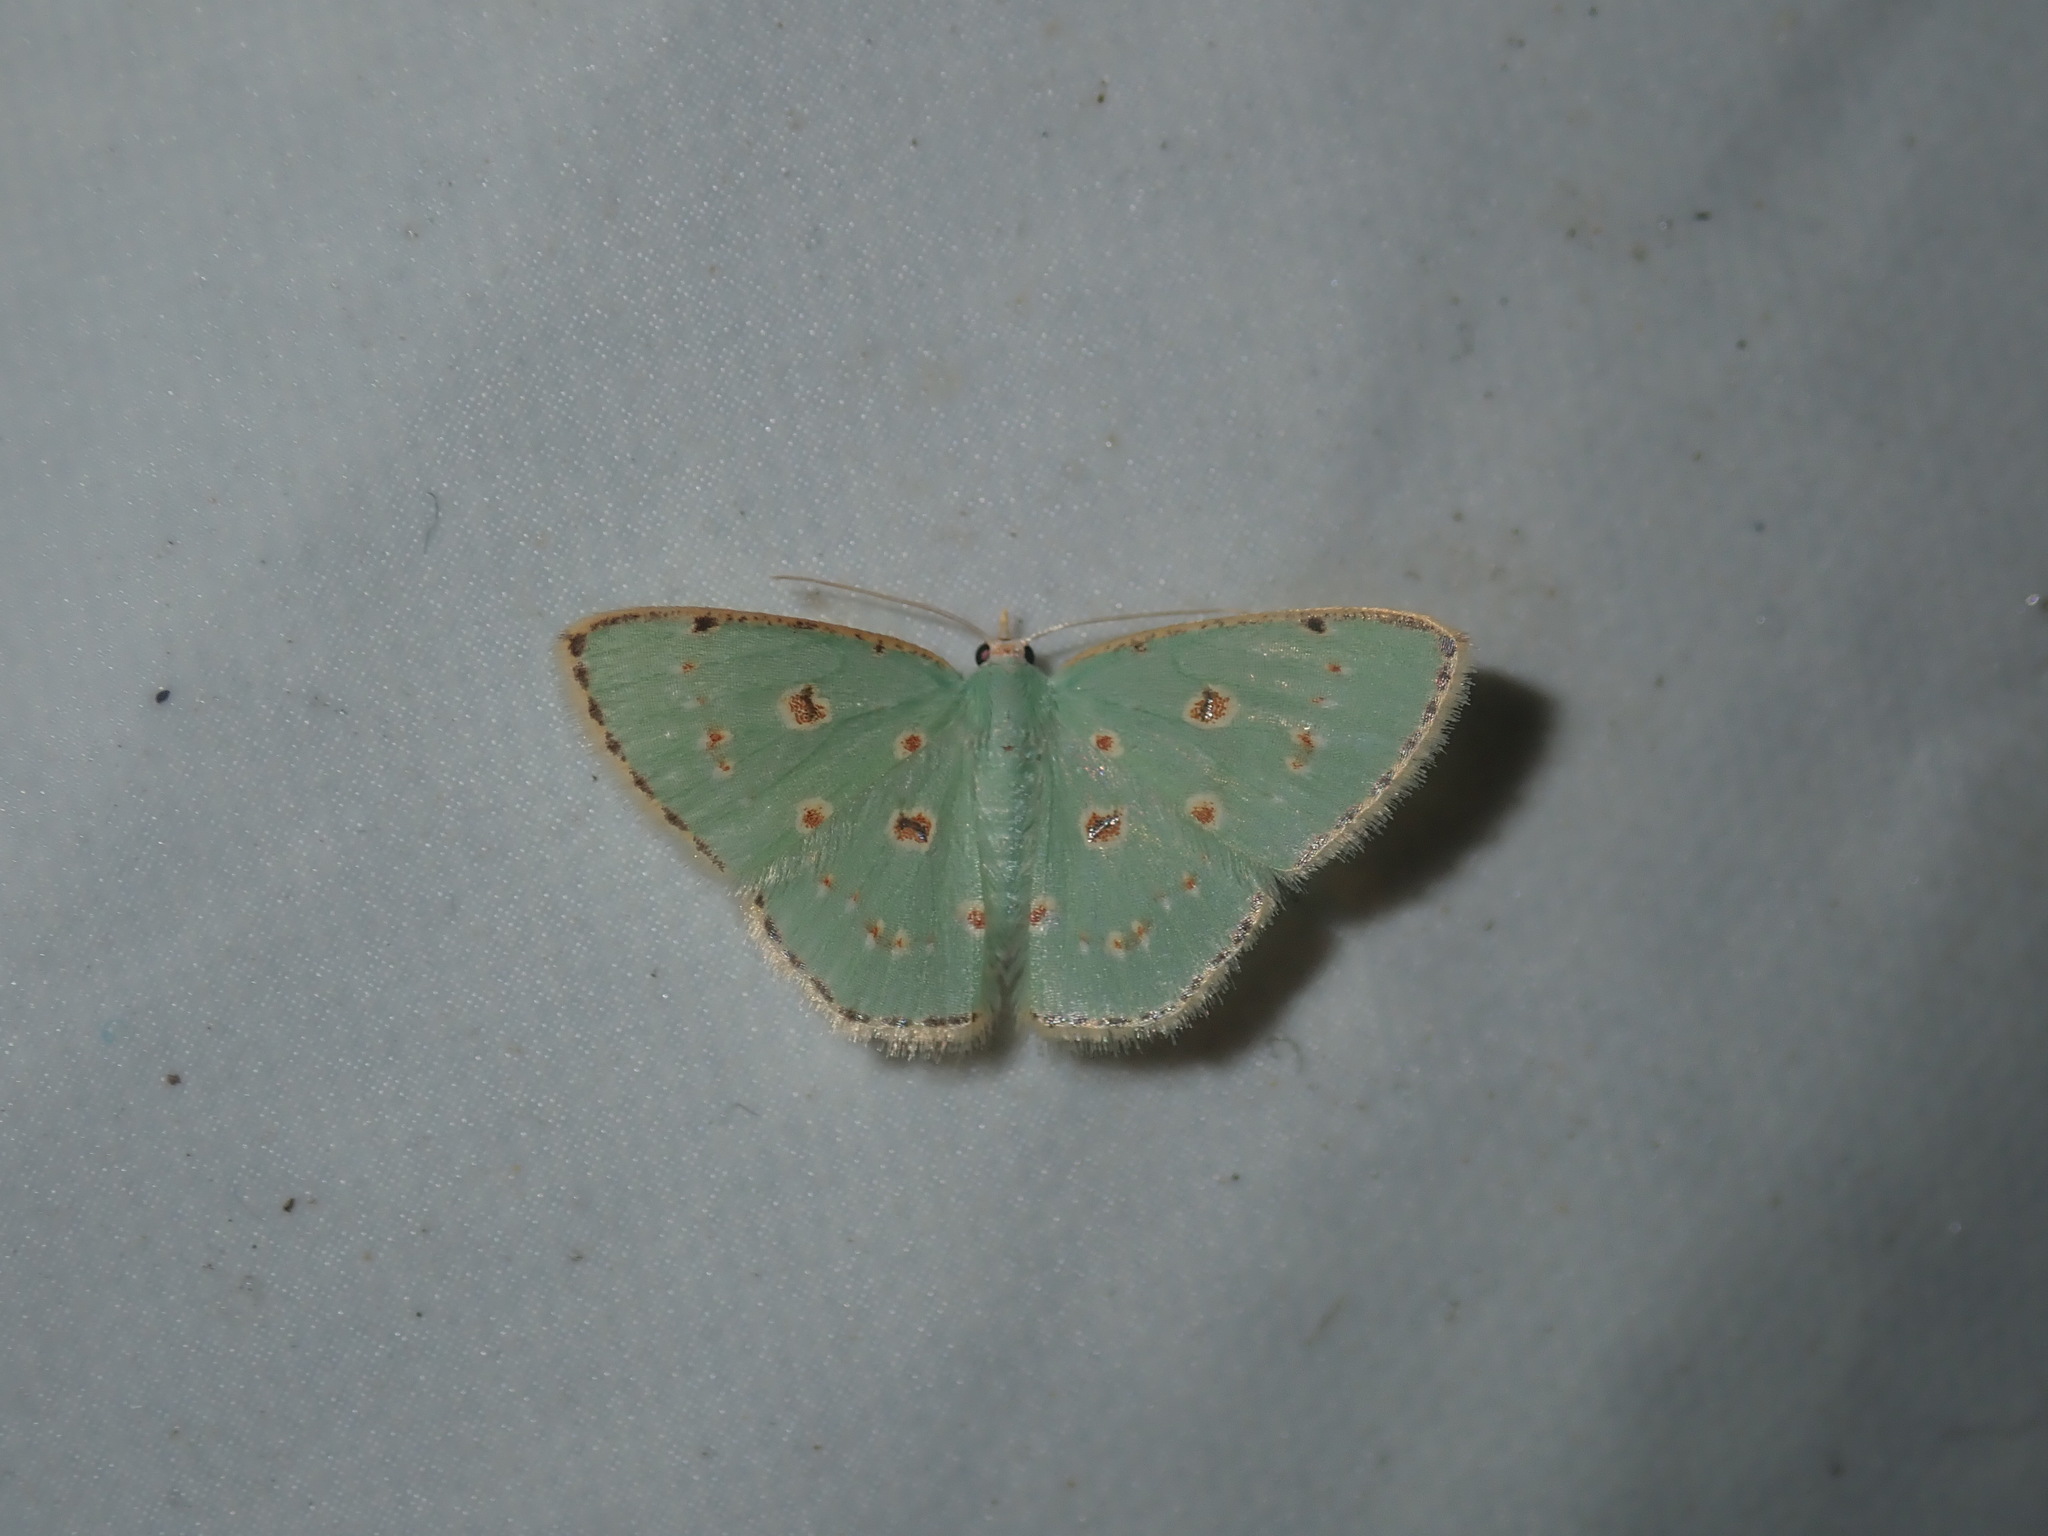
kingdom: Animalia
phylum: Arthropoda
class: Insecta
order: Lepidoptera
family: Geometridae
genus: Comostola
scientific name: Comostola laesaria
